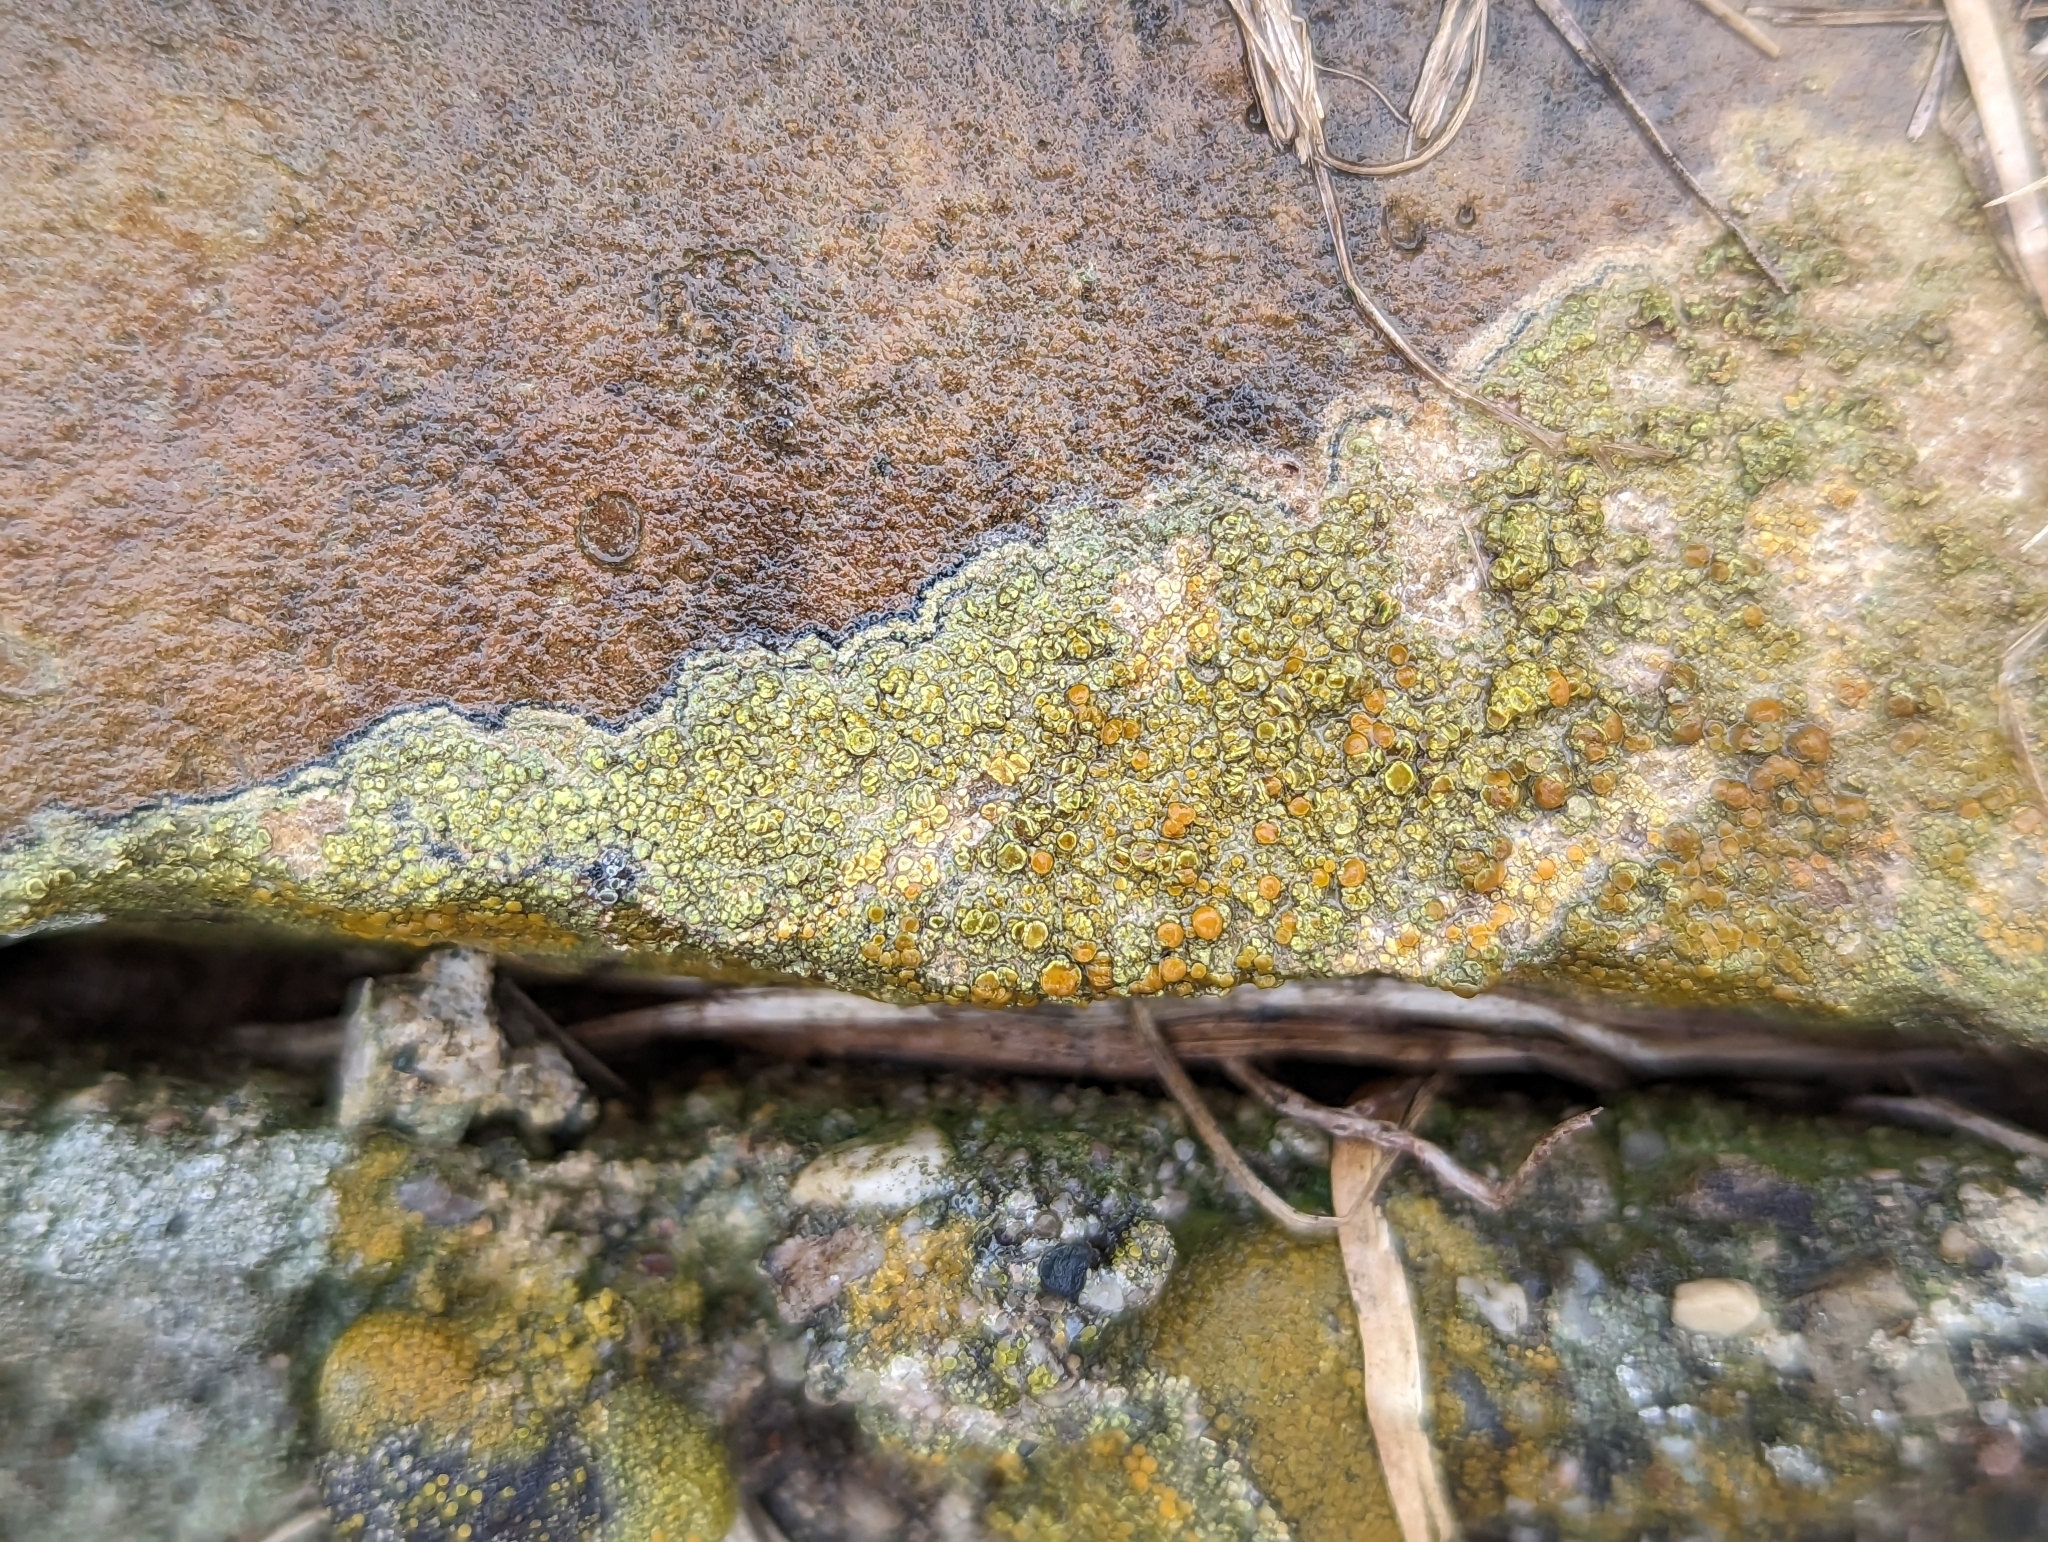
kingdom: Fungi
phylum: Ascomycota
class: Lecanoromycetes
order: Teloschistales
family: Teloschistaceae
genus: Gyalolechia
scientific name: Gyalolechia flavovirescens
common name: Sulphur firedot
